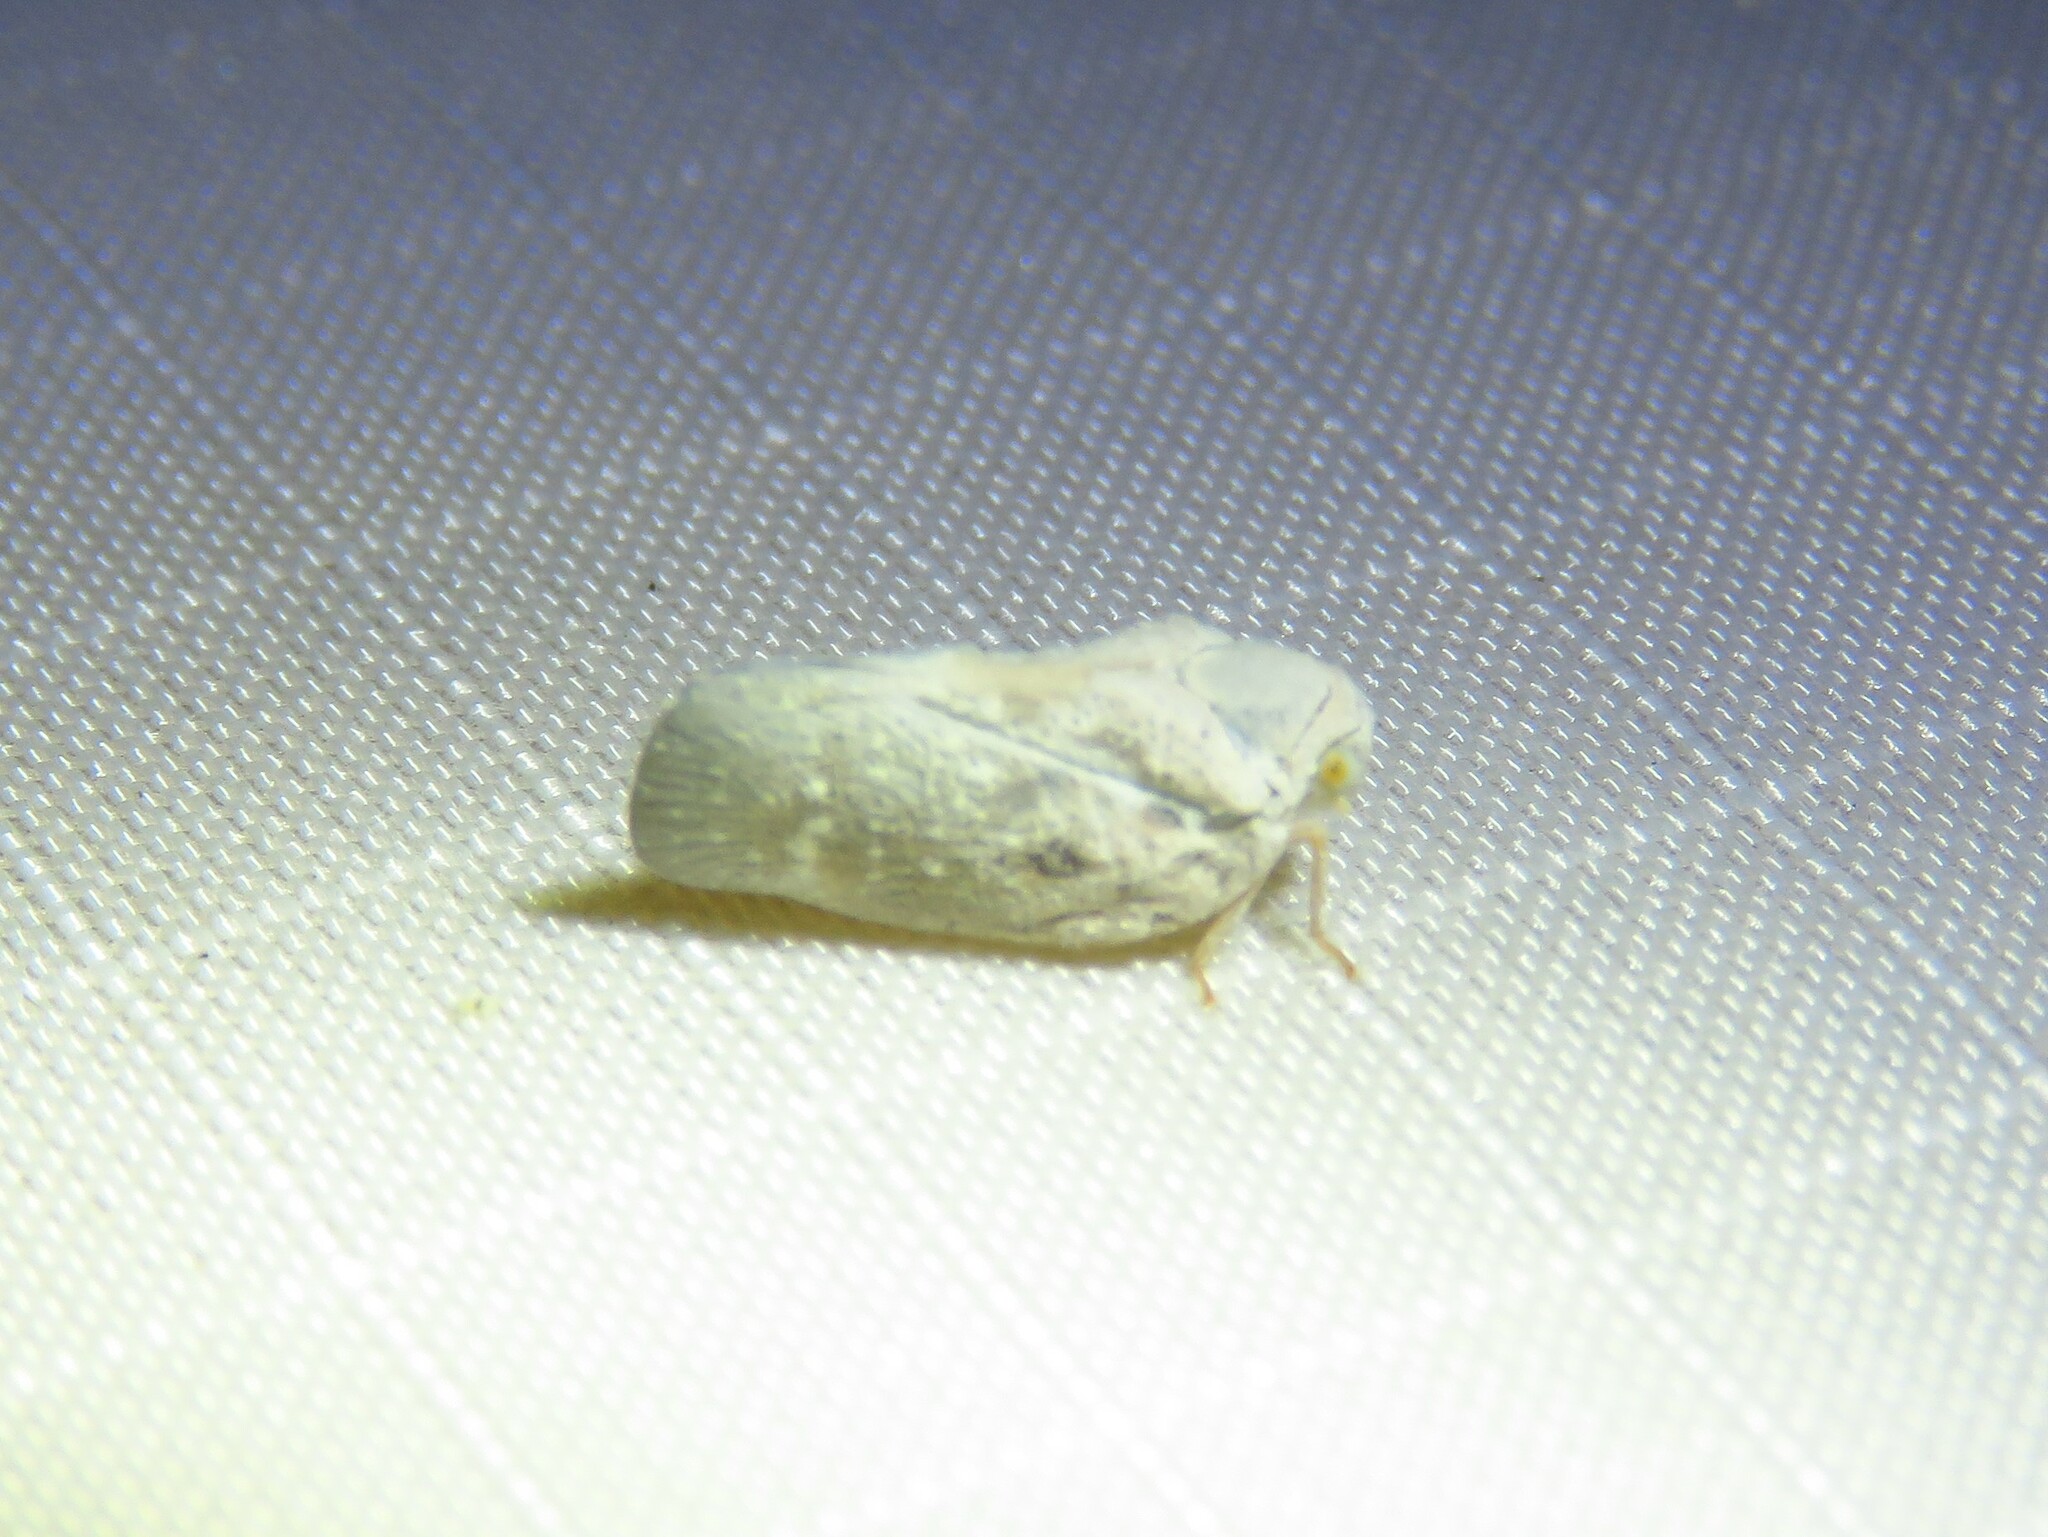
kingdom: Animalia
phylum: Arthropoda
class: Insecta
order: Hemiptera
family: Flatidae
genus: Metcalfa
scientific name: Metcalfa pruinosa
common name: Citrus flatid planthopper
